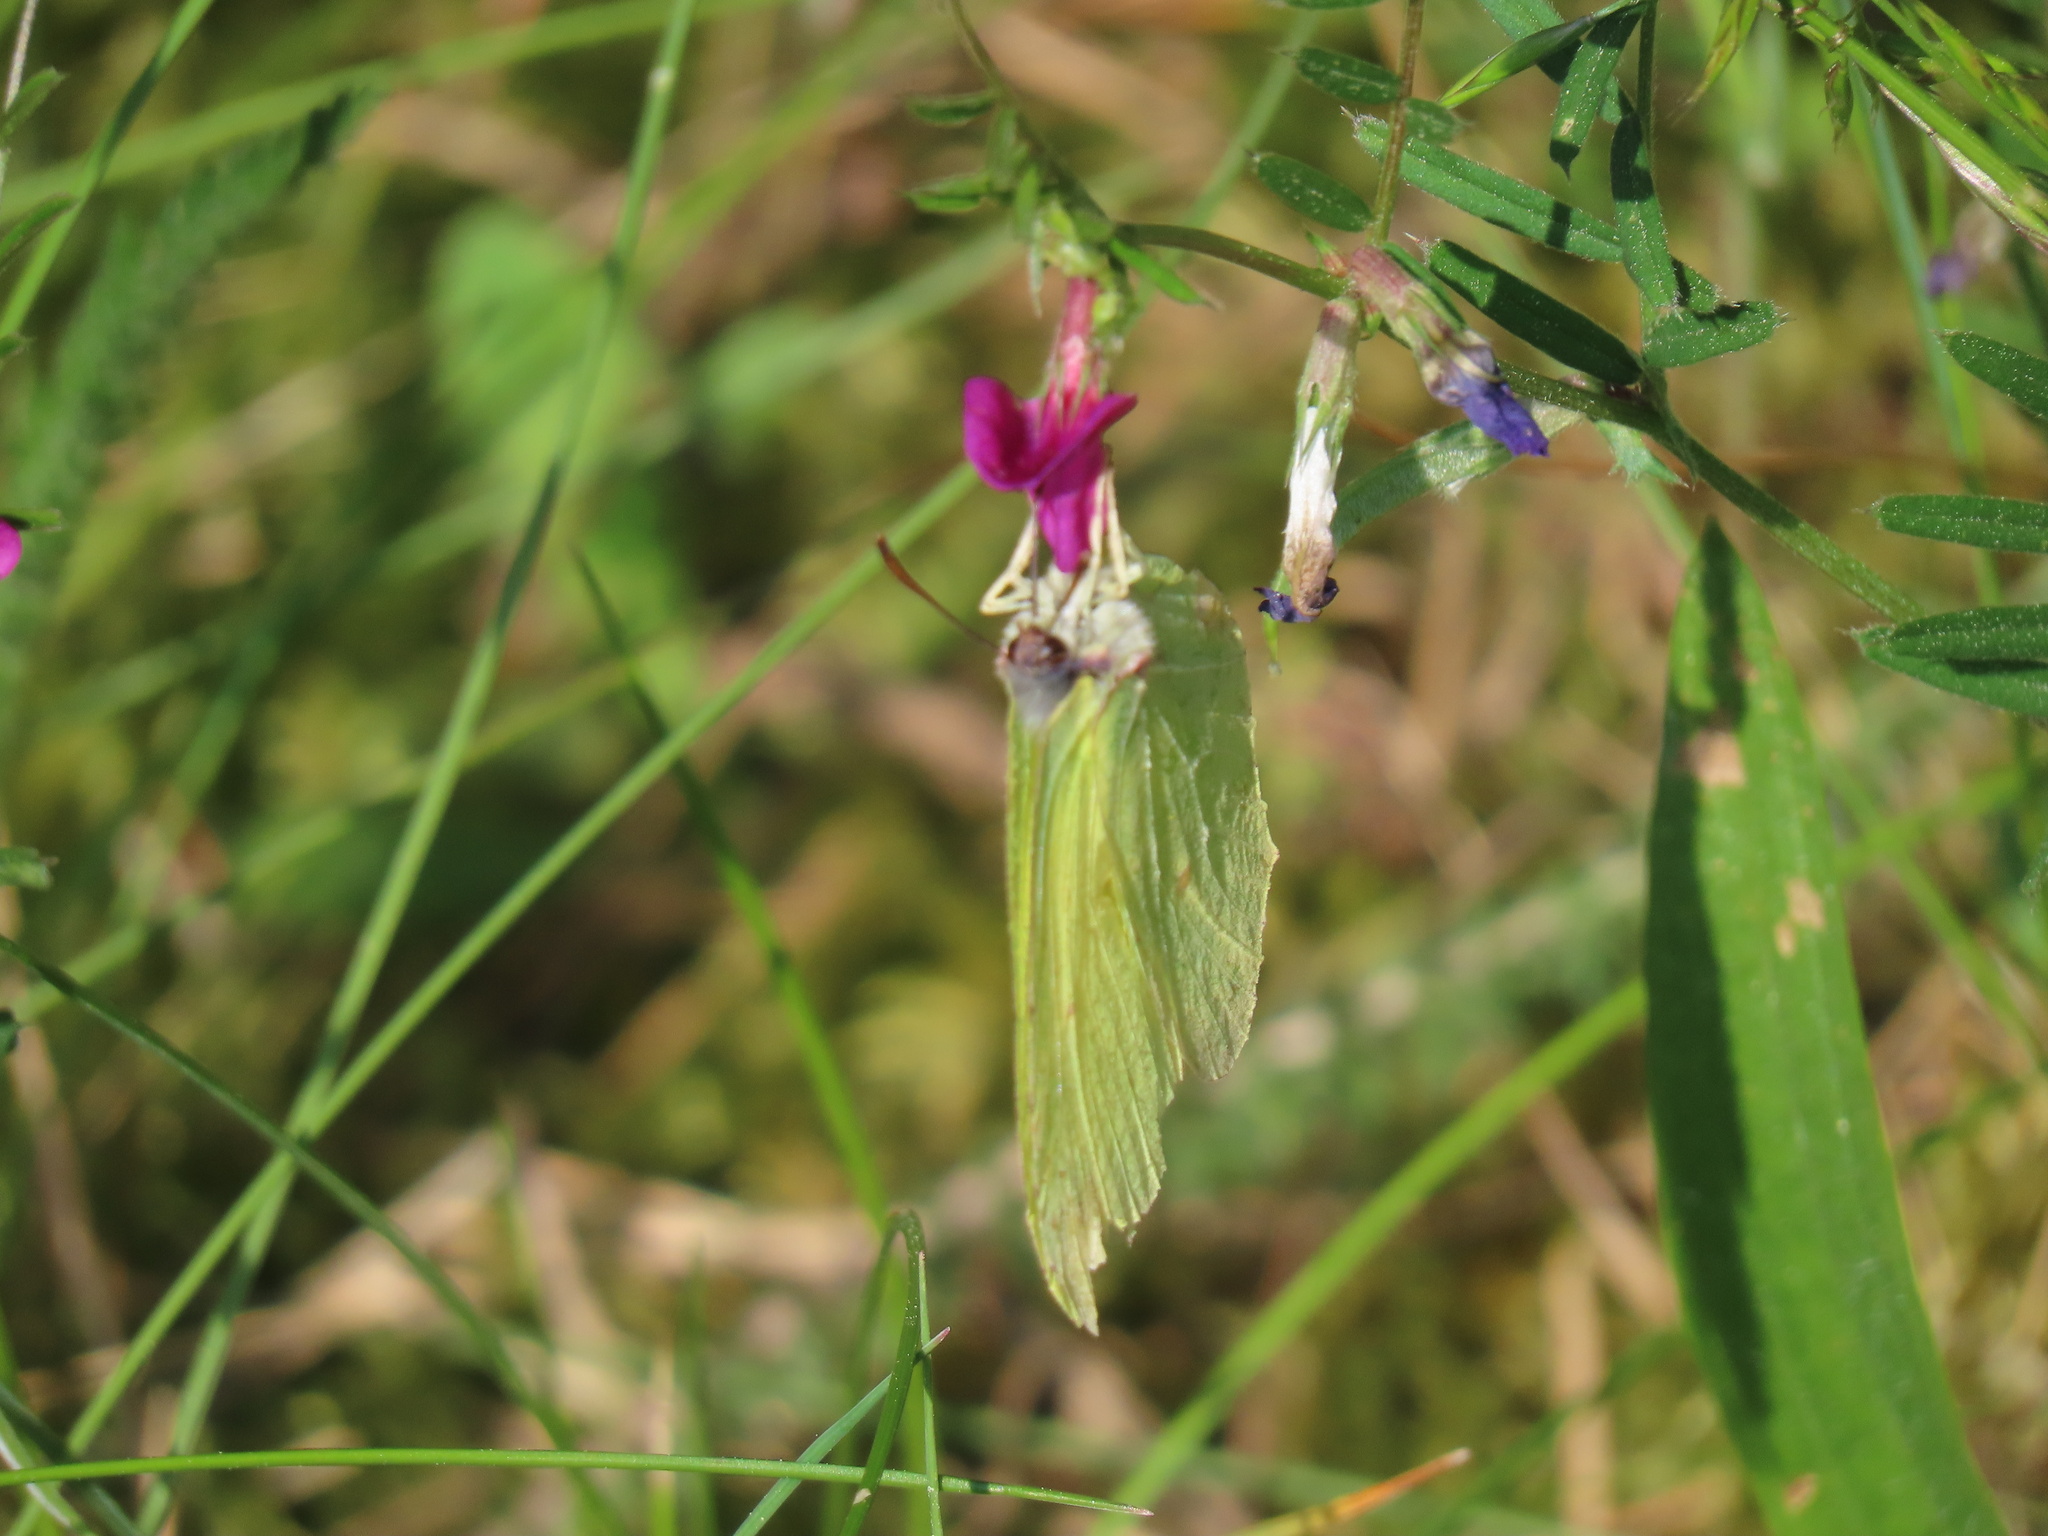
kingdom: Animalia
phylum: Arthropoda
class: Insecta
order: Lepidoptera
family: Pieridae
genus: Gonepteryx
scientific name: Gonepteryx rhamni
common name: Brimstone
